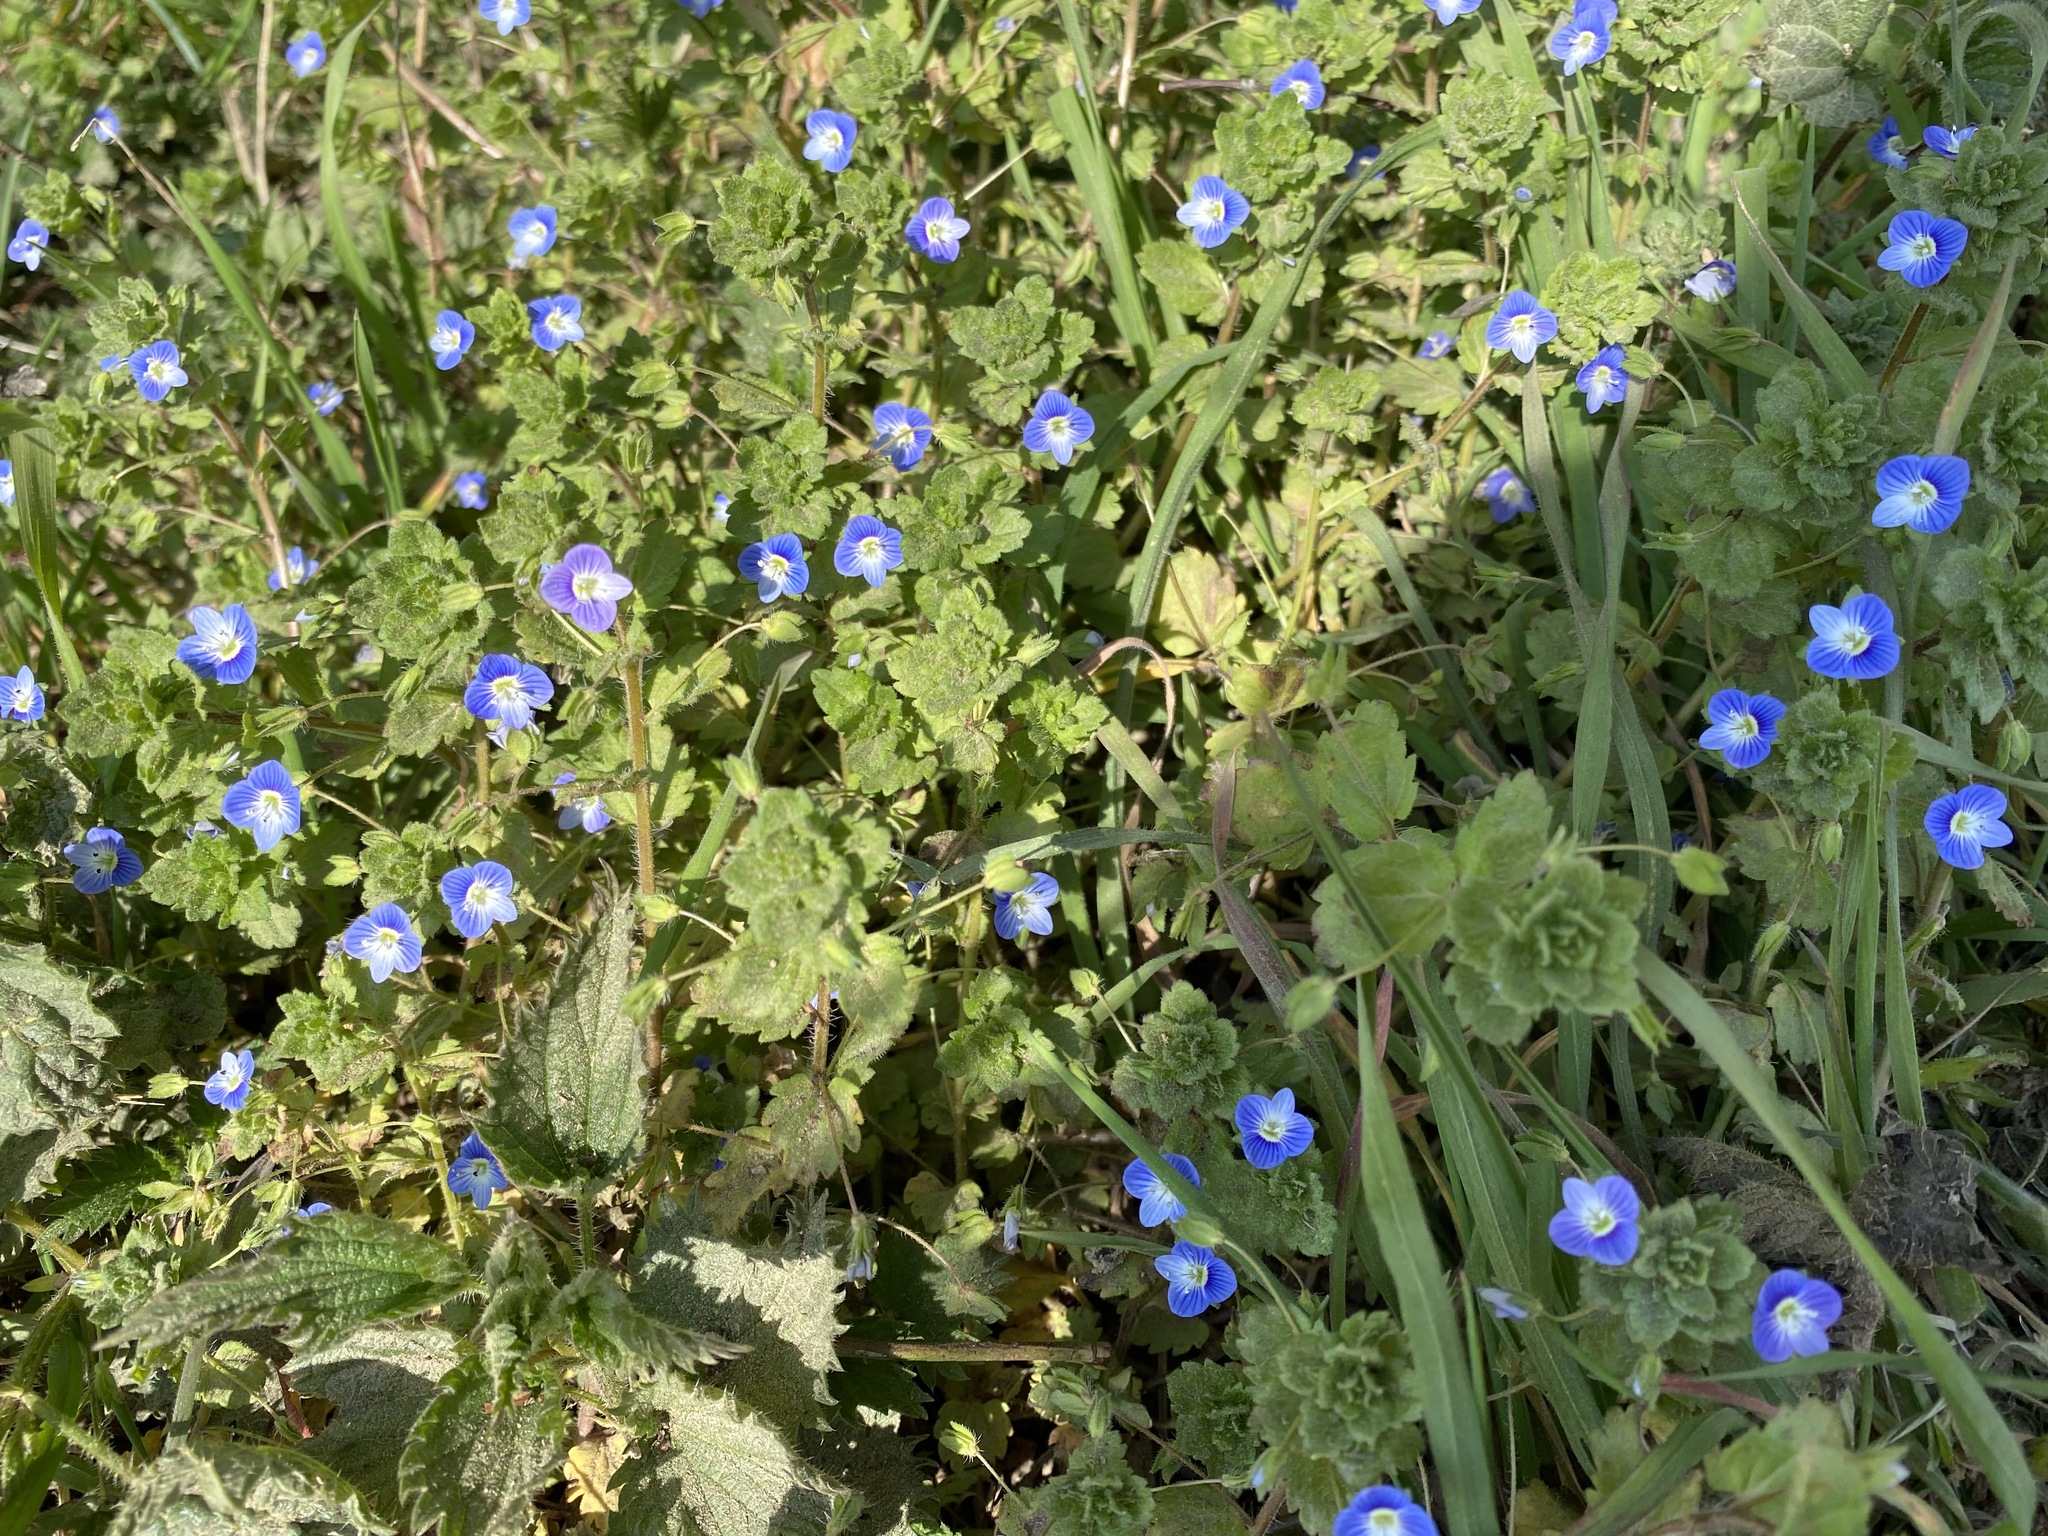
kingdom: Plantae
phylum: Tracheophyta
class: Magnoliopsida
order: Lamiales
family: Plantaginaceae
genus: Veronica
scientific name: Veronica persica
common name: Common field-speedwell
